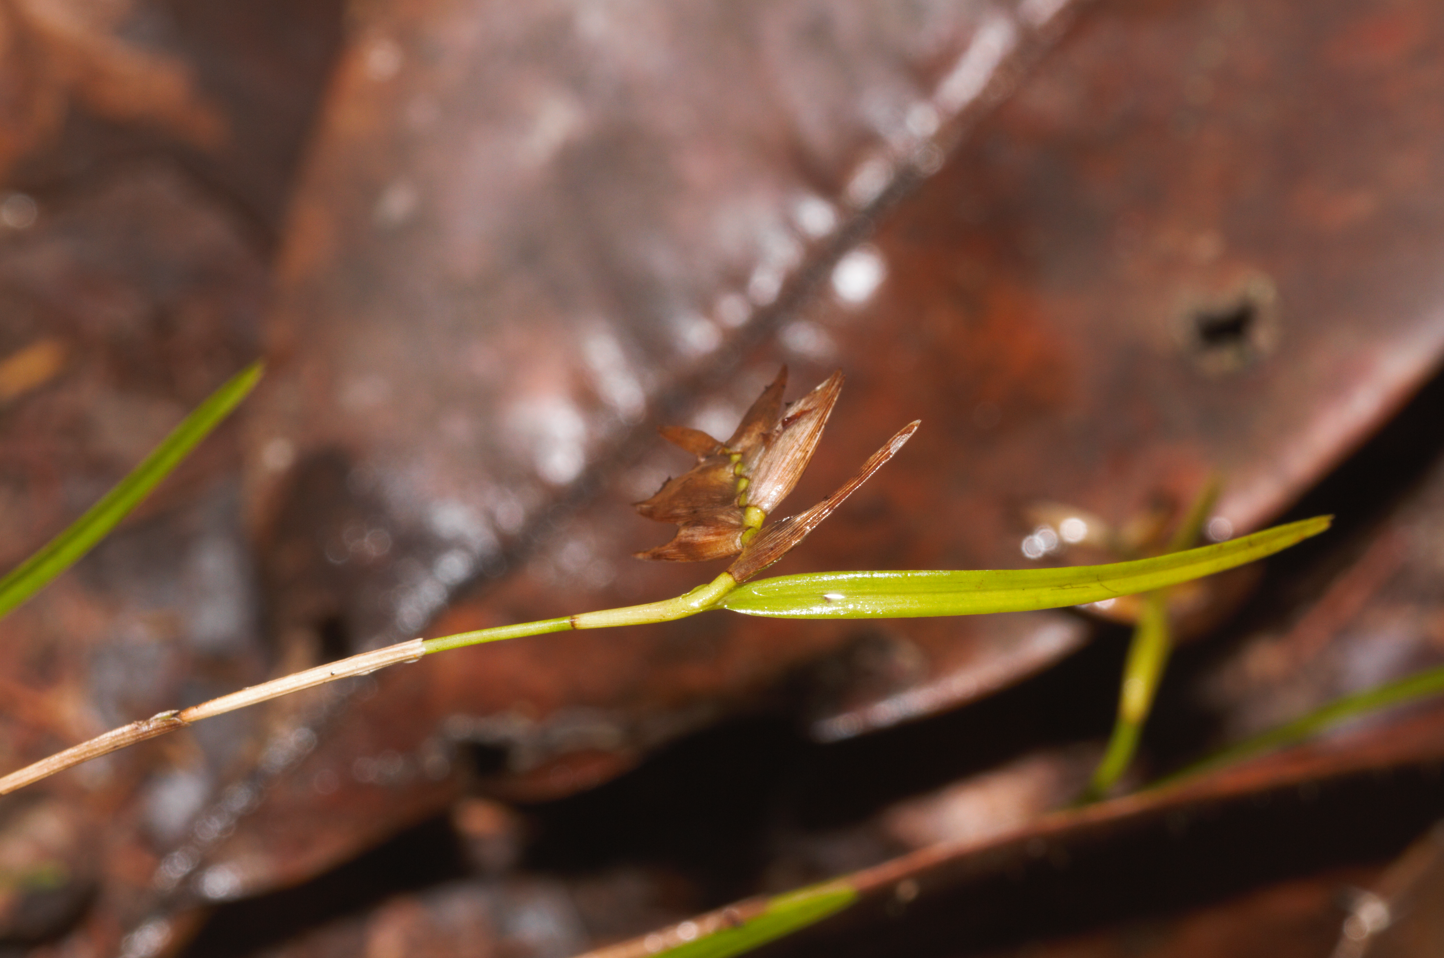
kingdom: Plantae
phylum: Tracheophyta
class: Liliopsida
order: Asparagales
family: Orchidaceae
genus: Elleanthus
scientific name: Elleanthus graminifolius
